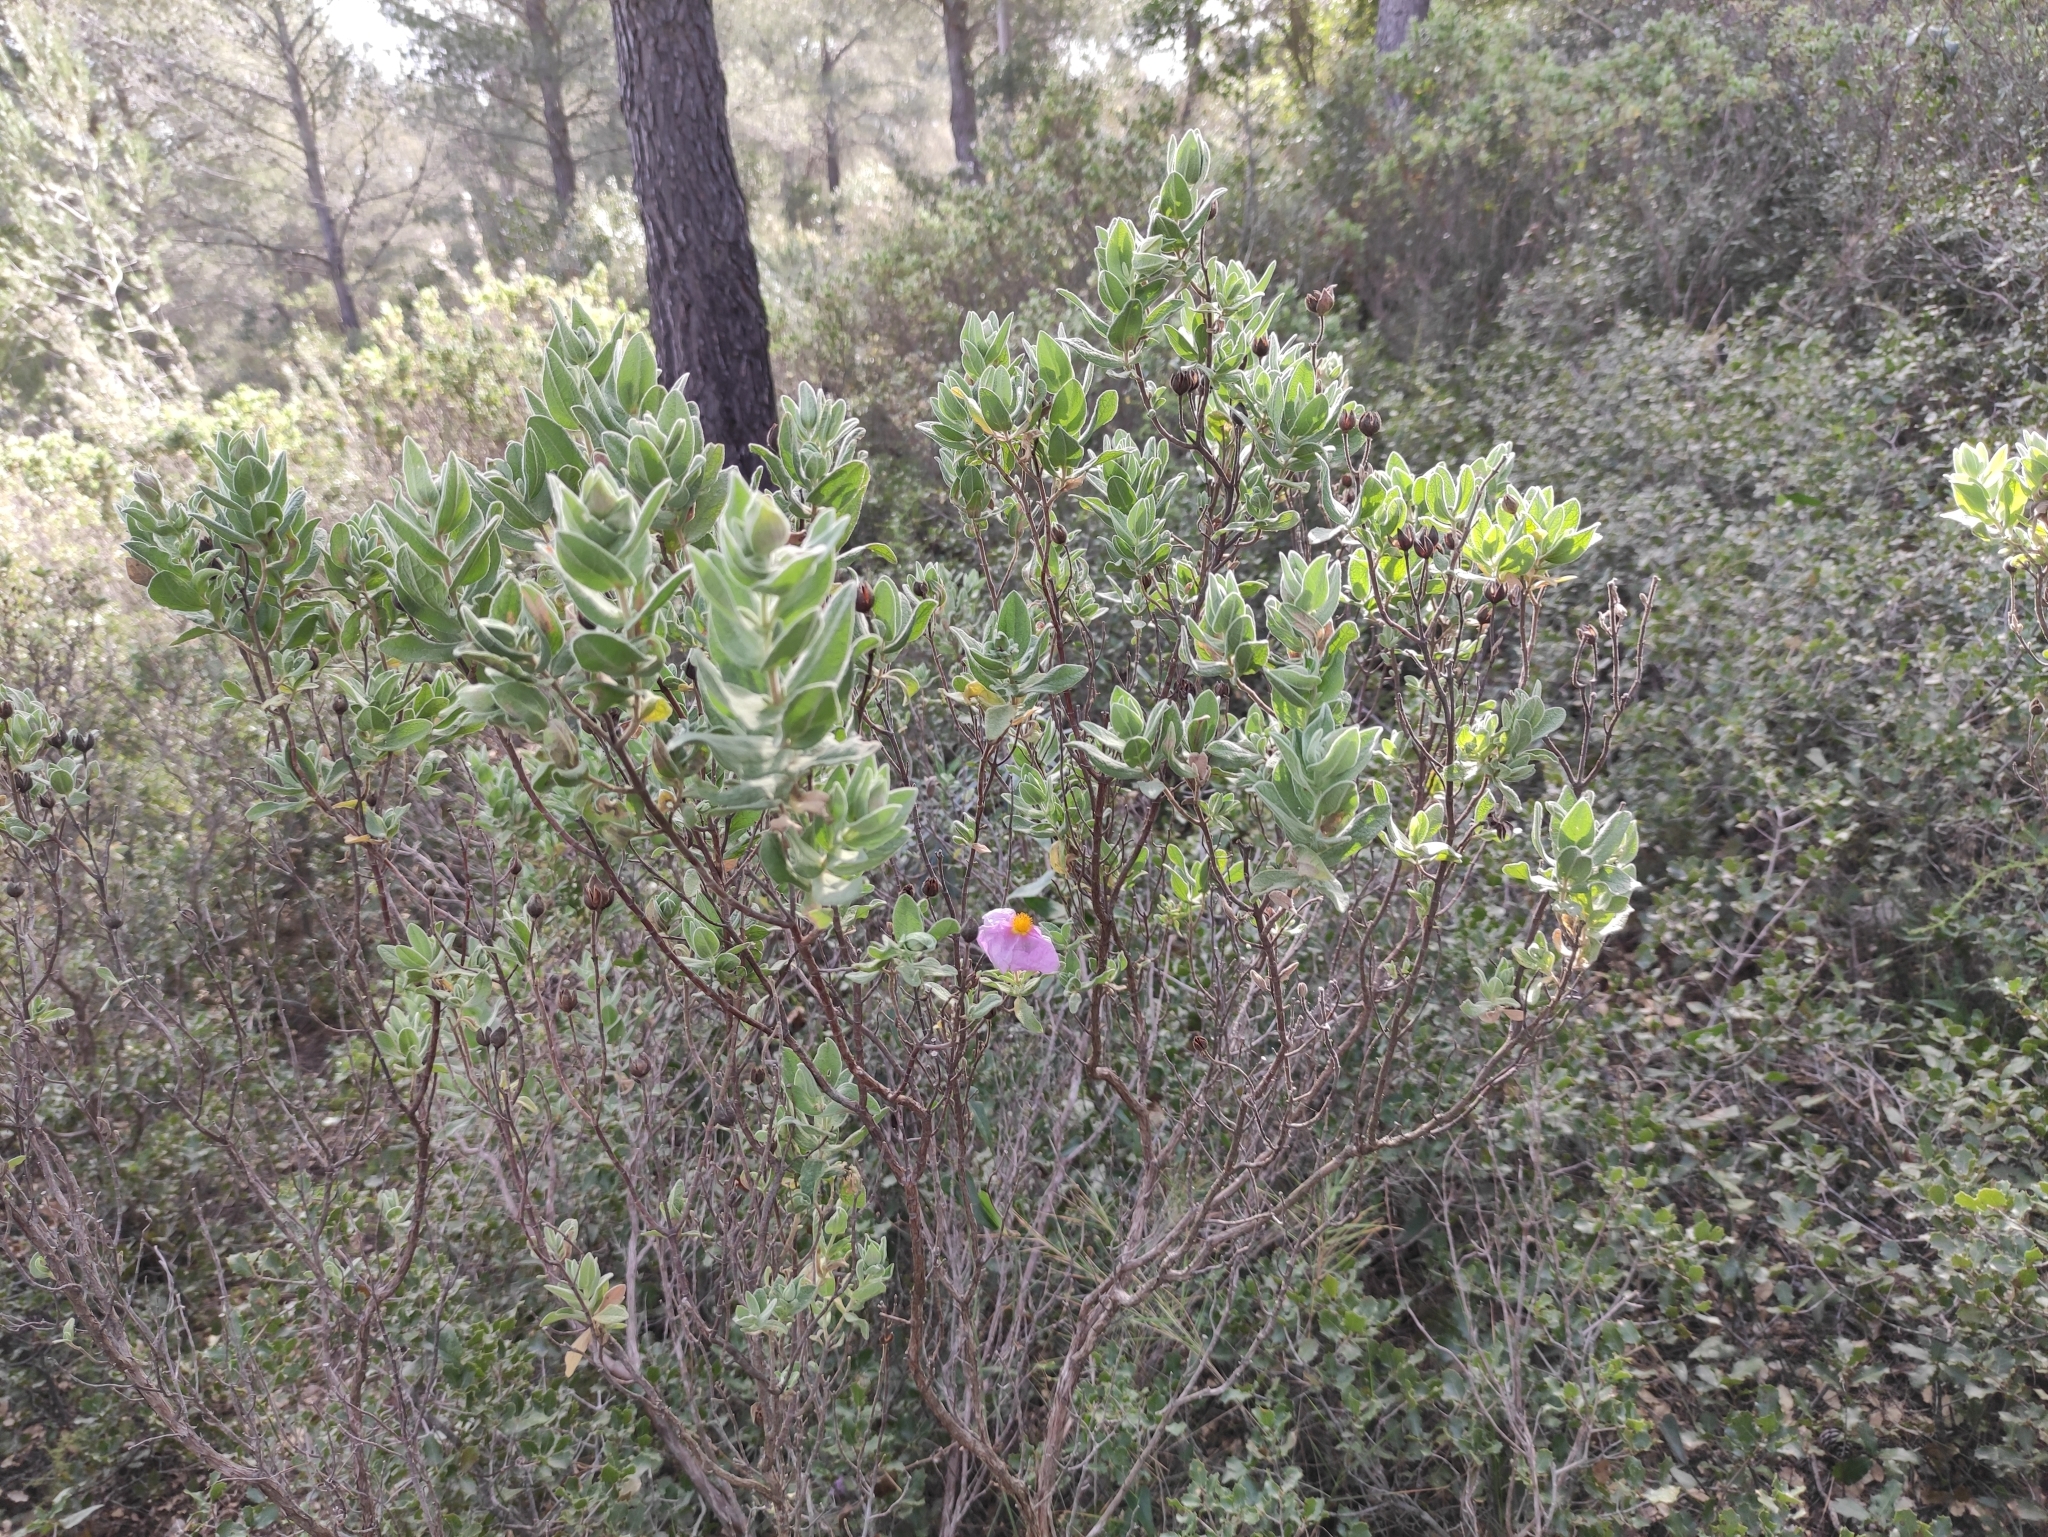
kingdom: Plantae
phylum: Tracheophyta
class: Magnoliopsida
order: Malvales
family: Cistaceae
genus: Cistus
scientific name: Cistus albidus
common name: White-leaf rock-rose
